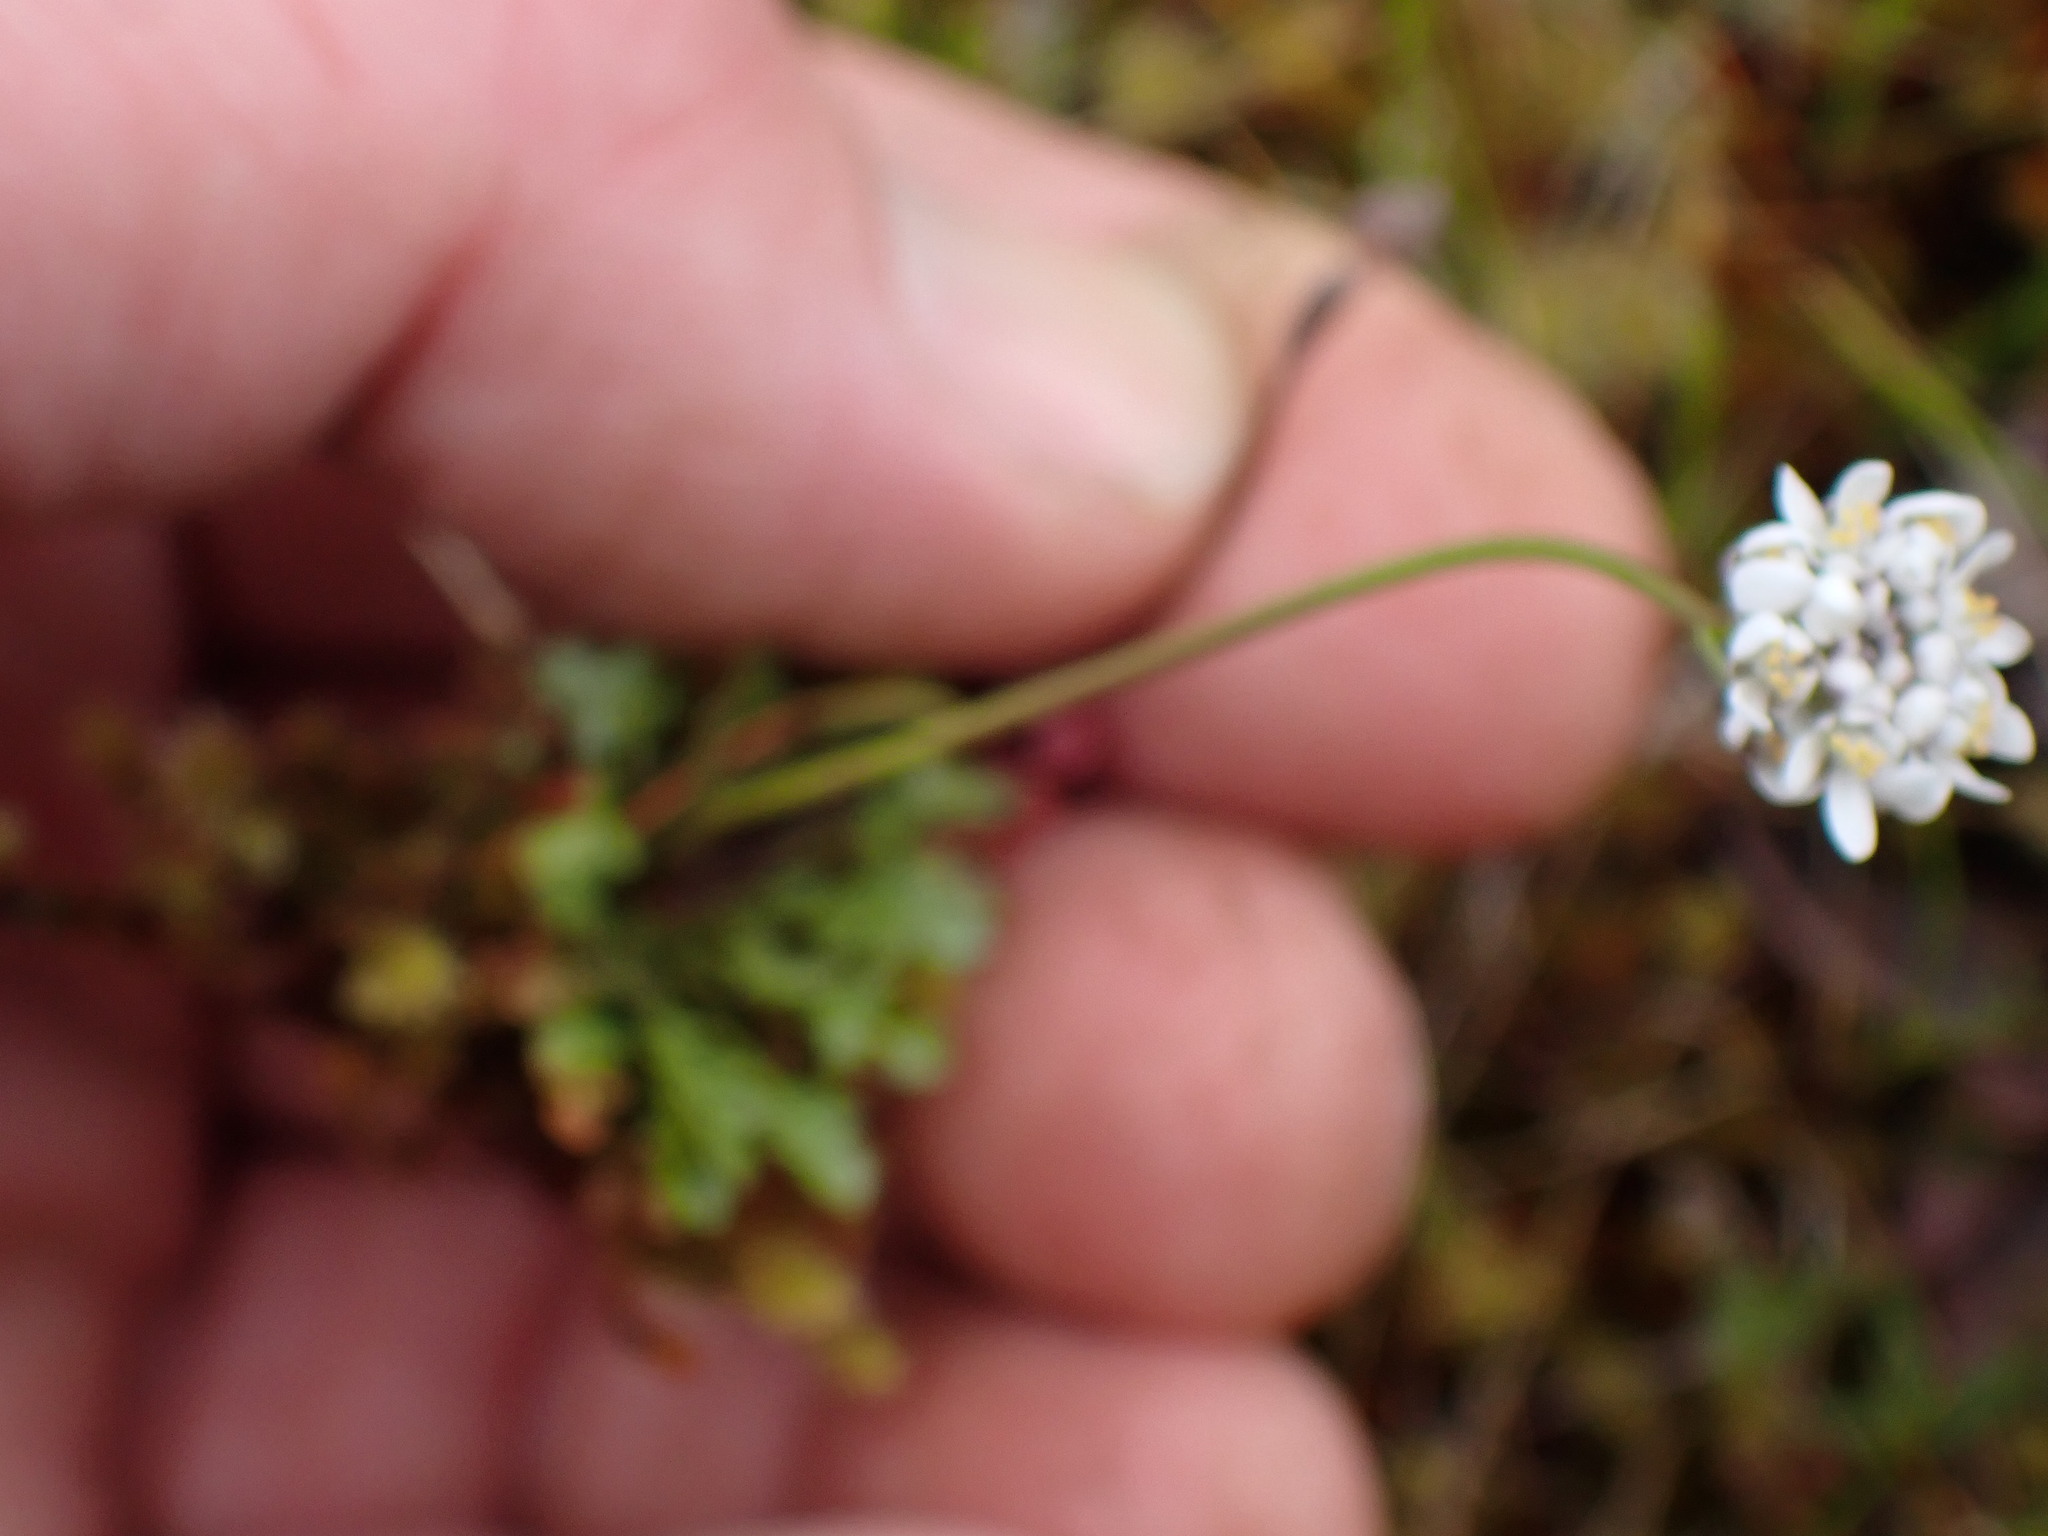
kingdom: Plantae
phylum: Tracheophyta
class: Magnoliopsida
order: Brassicales
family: Brassicaceae
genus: Teesdalia
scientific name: Teesdalia nudicaulis
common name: Shepherd's cress
